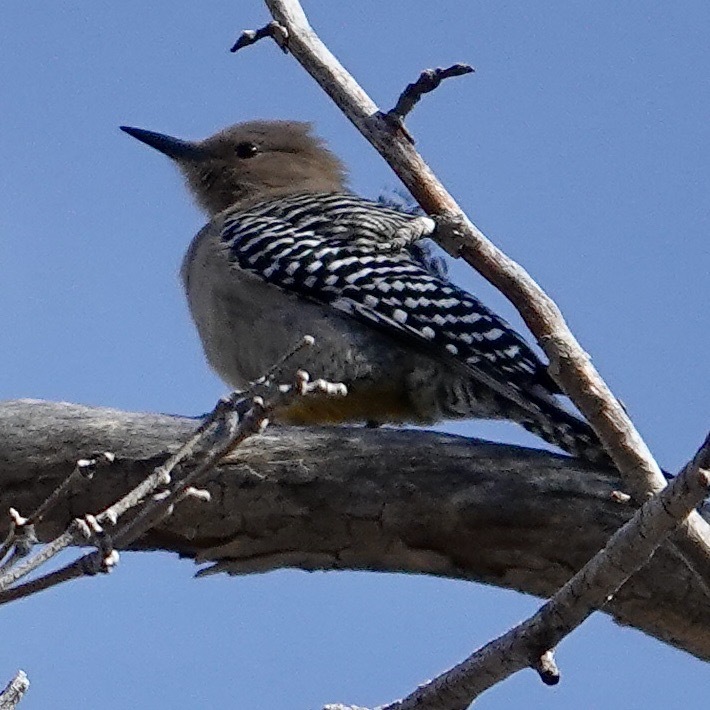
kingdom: Animalia
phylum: Chordata
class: Aves
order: Piciformes
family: Picidae
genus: Melanerpes
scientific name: Melanerpes uropygialis
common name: Gila woodpecker
